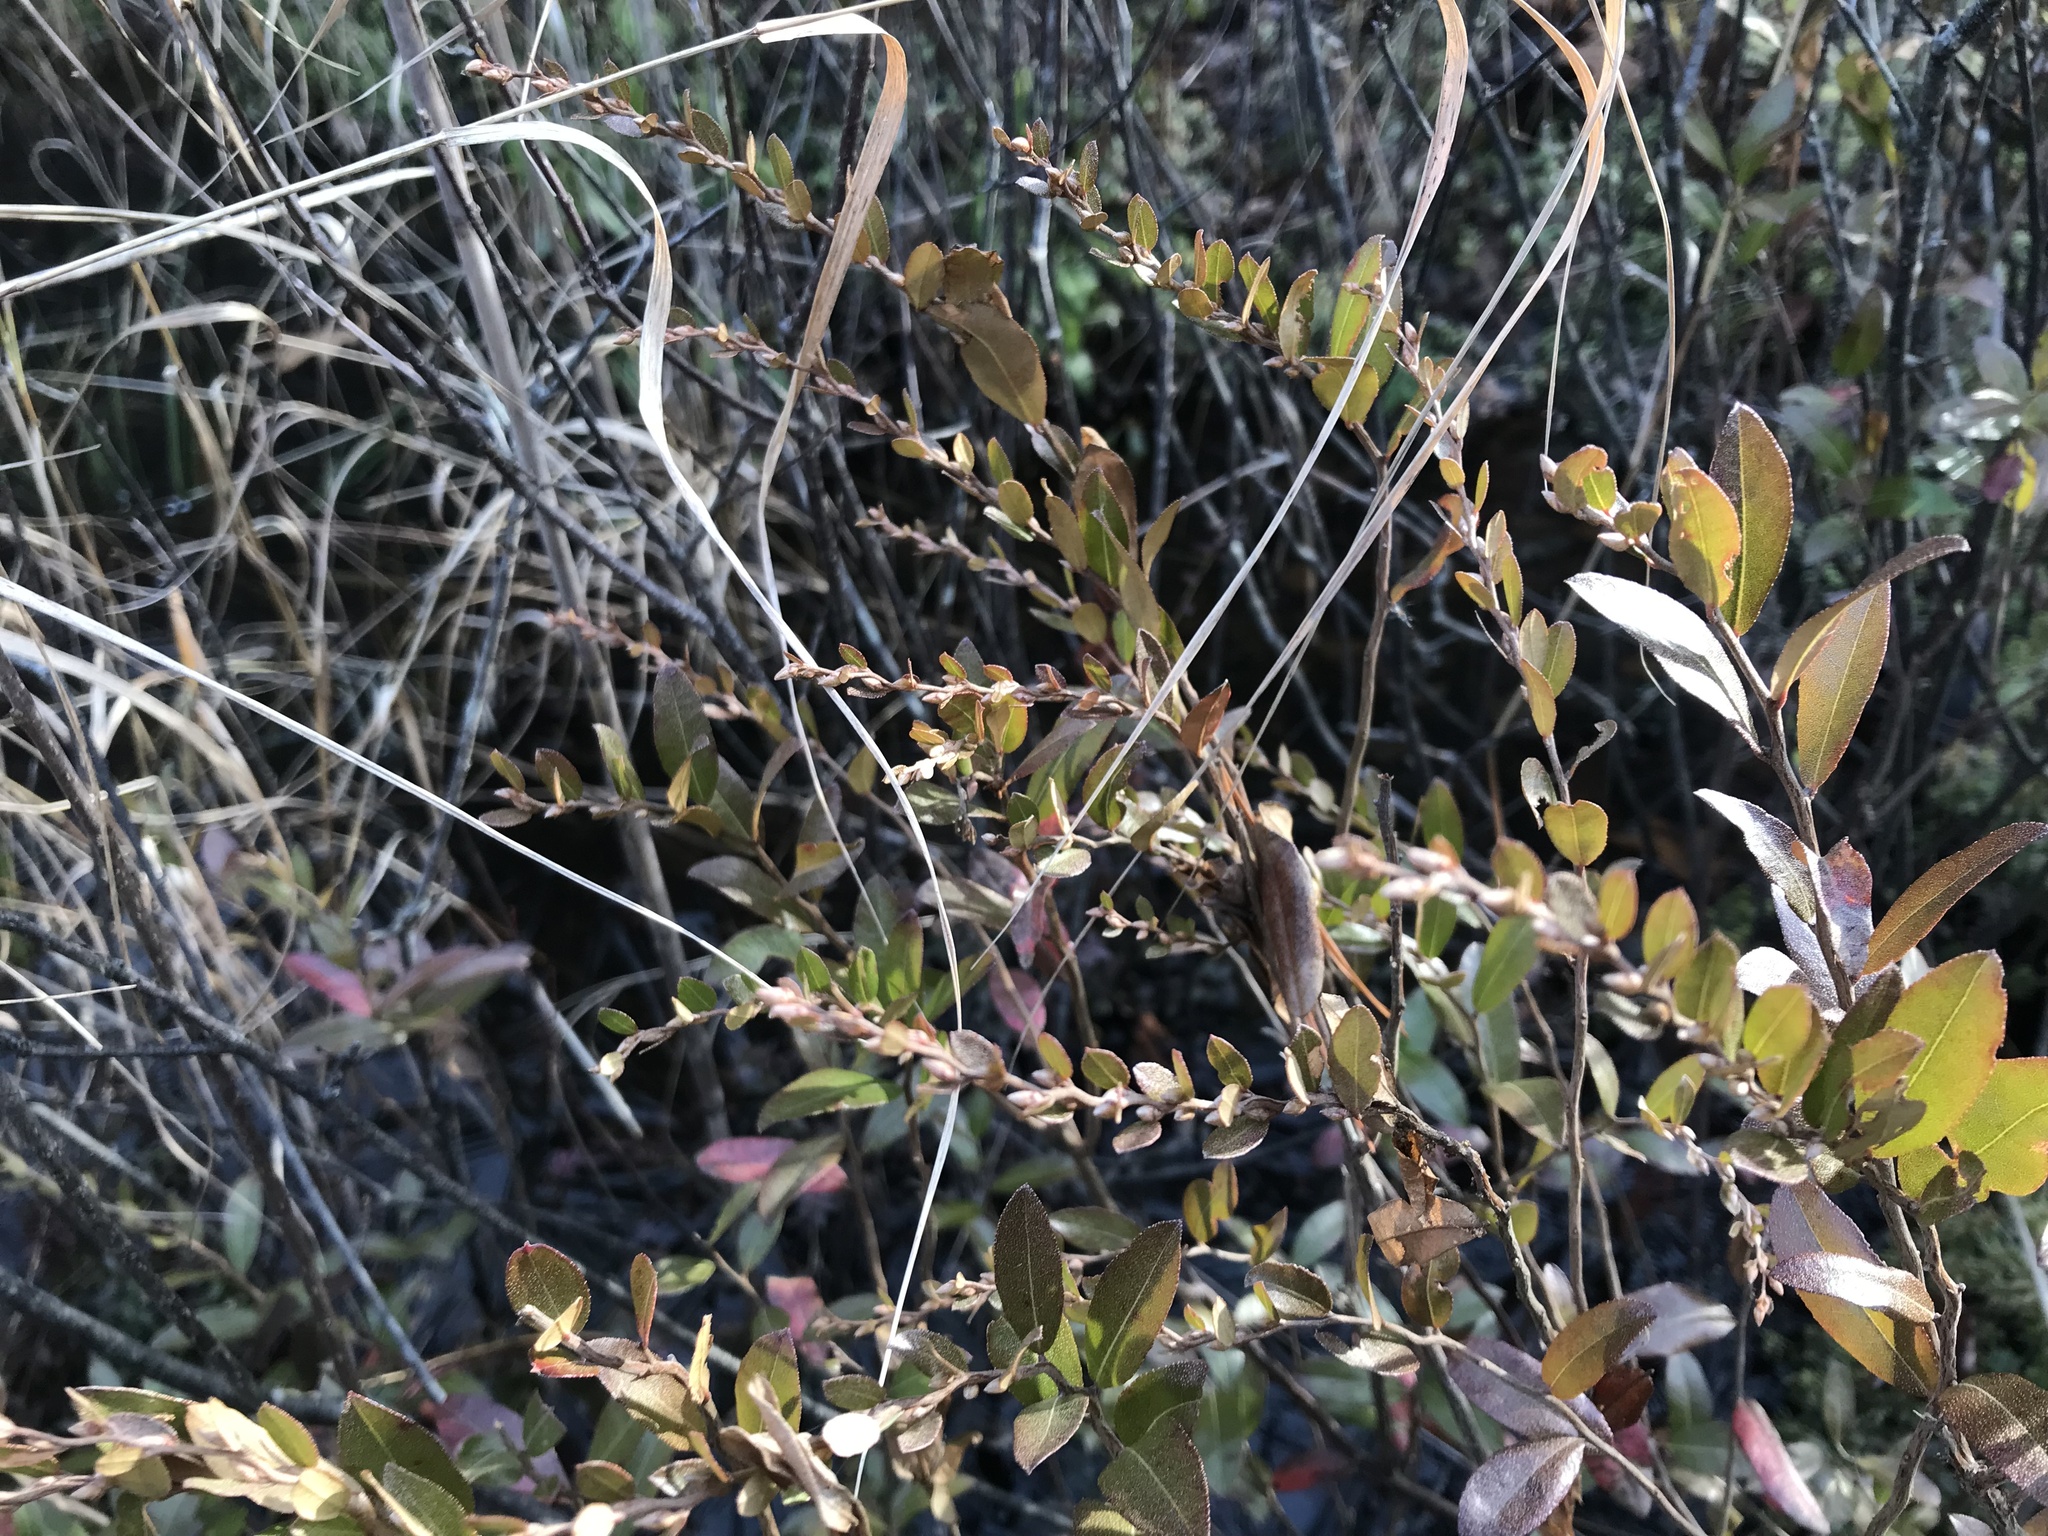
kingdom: Plantae
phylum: Tracheophyta
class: Magnoliopsida
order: Ericales
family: Ericaceae
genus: Chamaedaphne
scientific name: Chamaedaphne calyculata
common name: Leatherleaf
